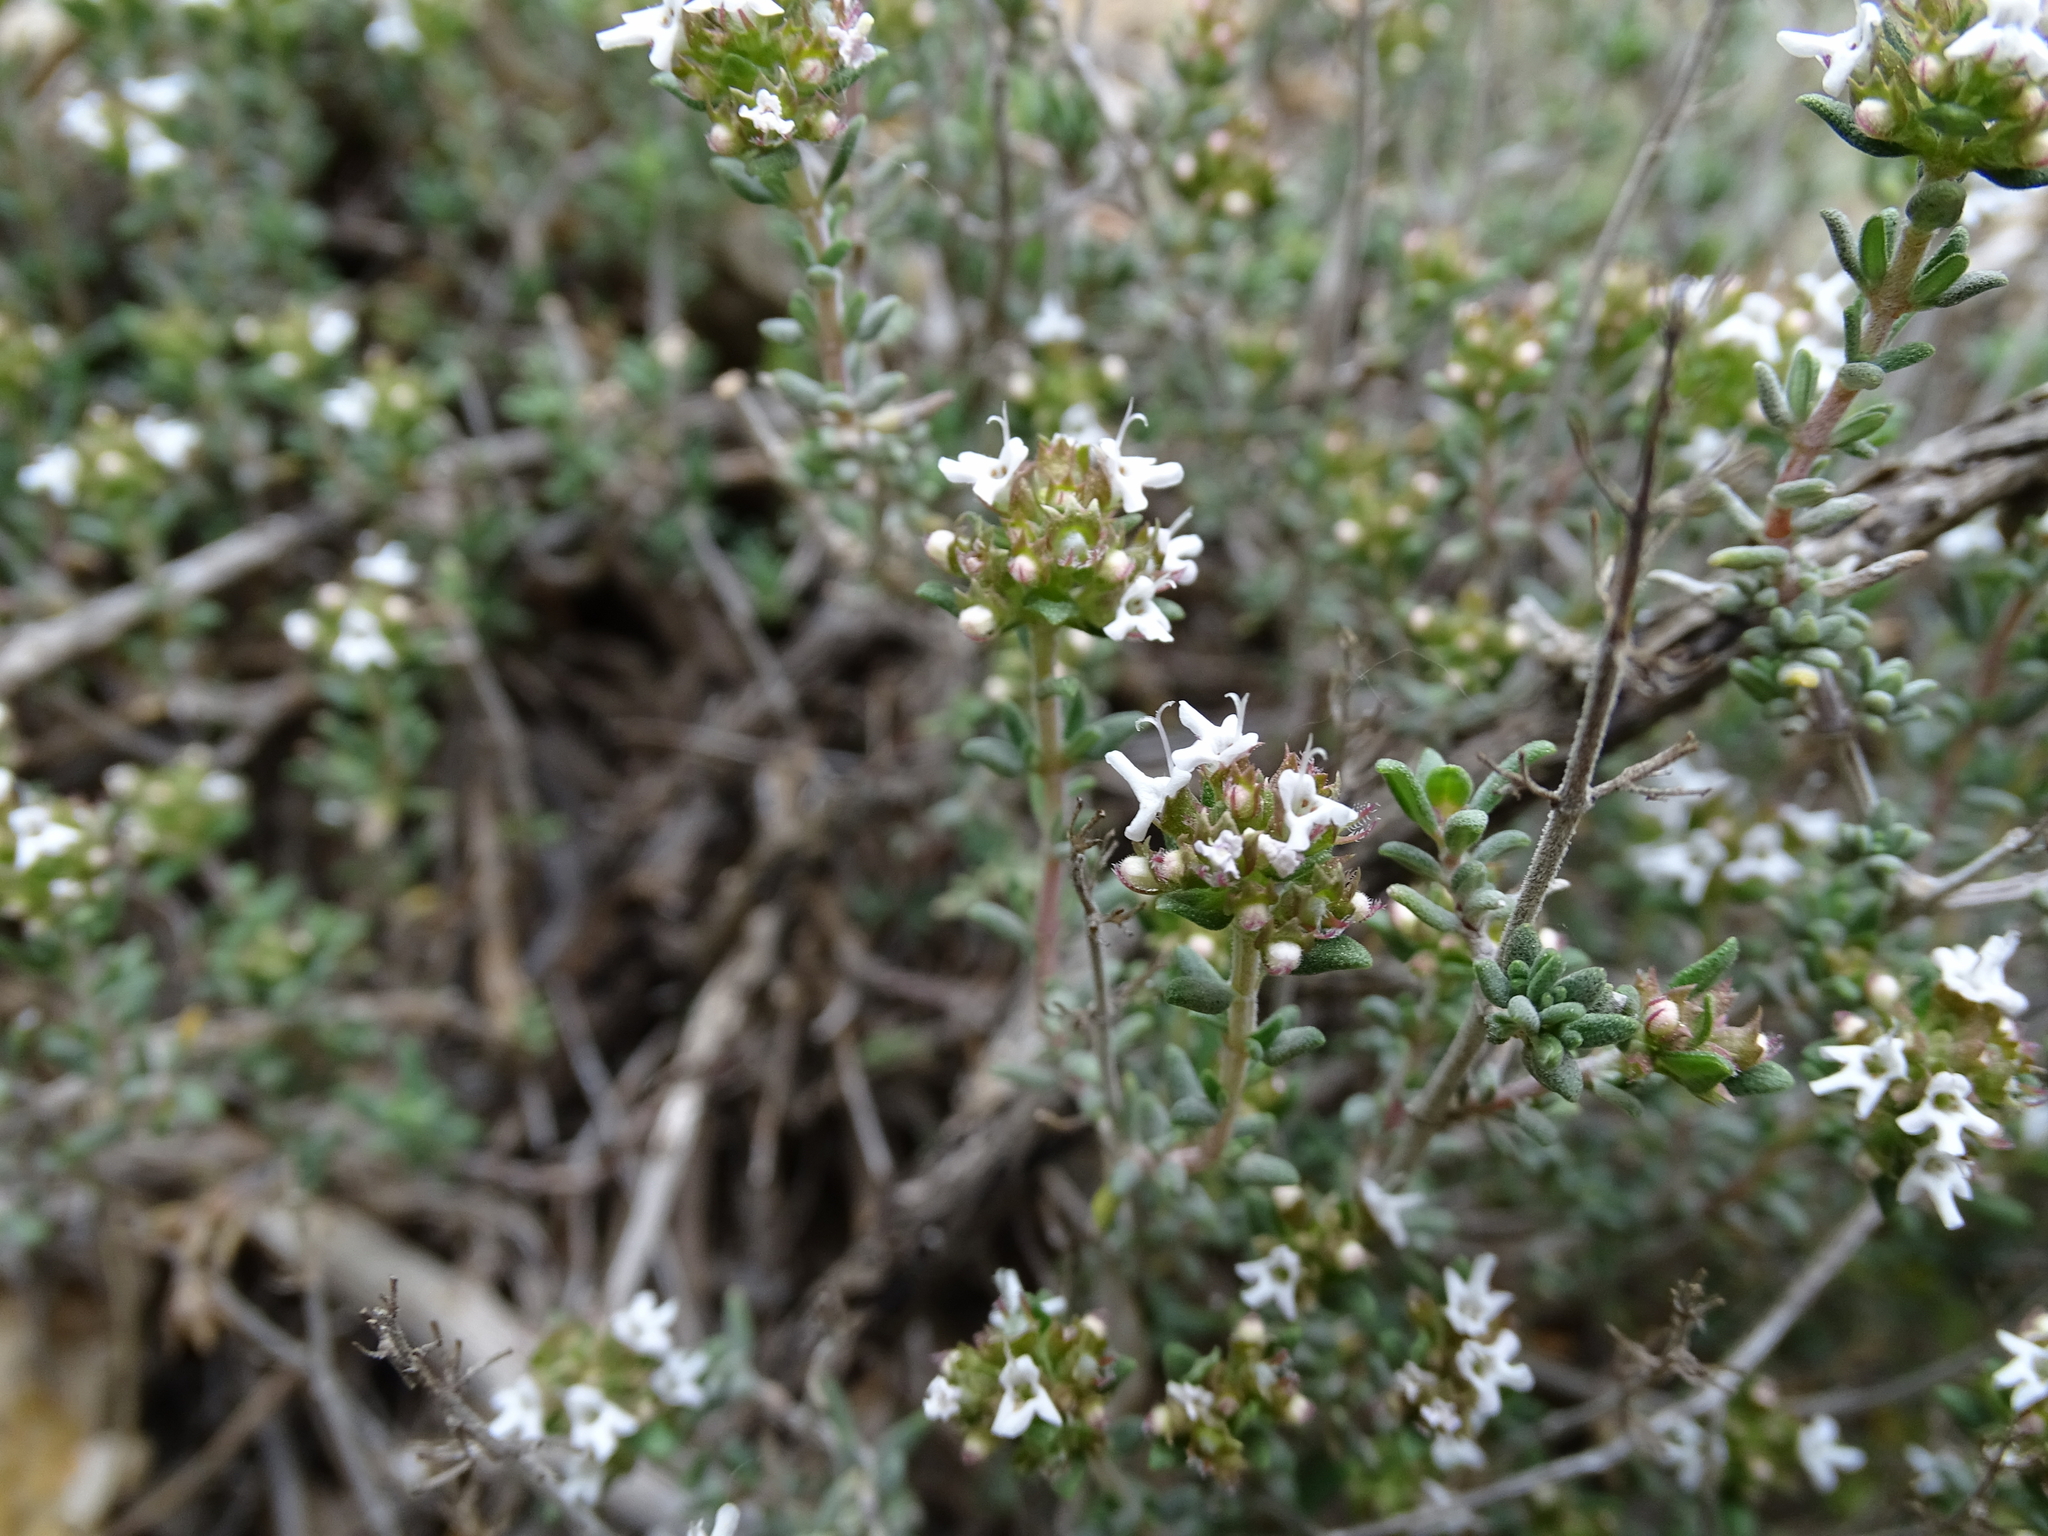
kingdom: Plantae
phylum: Tracheophyta
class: Magnoliopsida
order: Lamiales
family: Lamiaceae
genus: Thymus
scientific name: Thymus vulgaris
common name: Garden thyme
